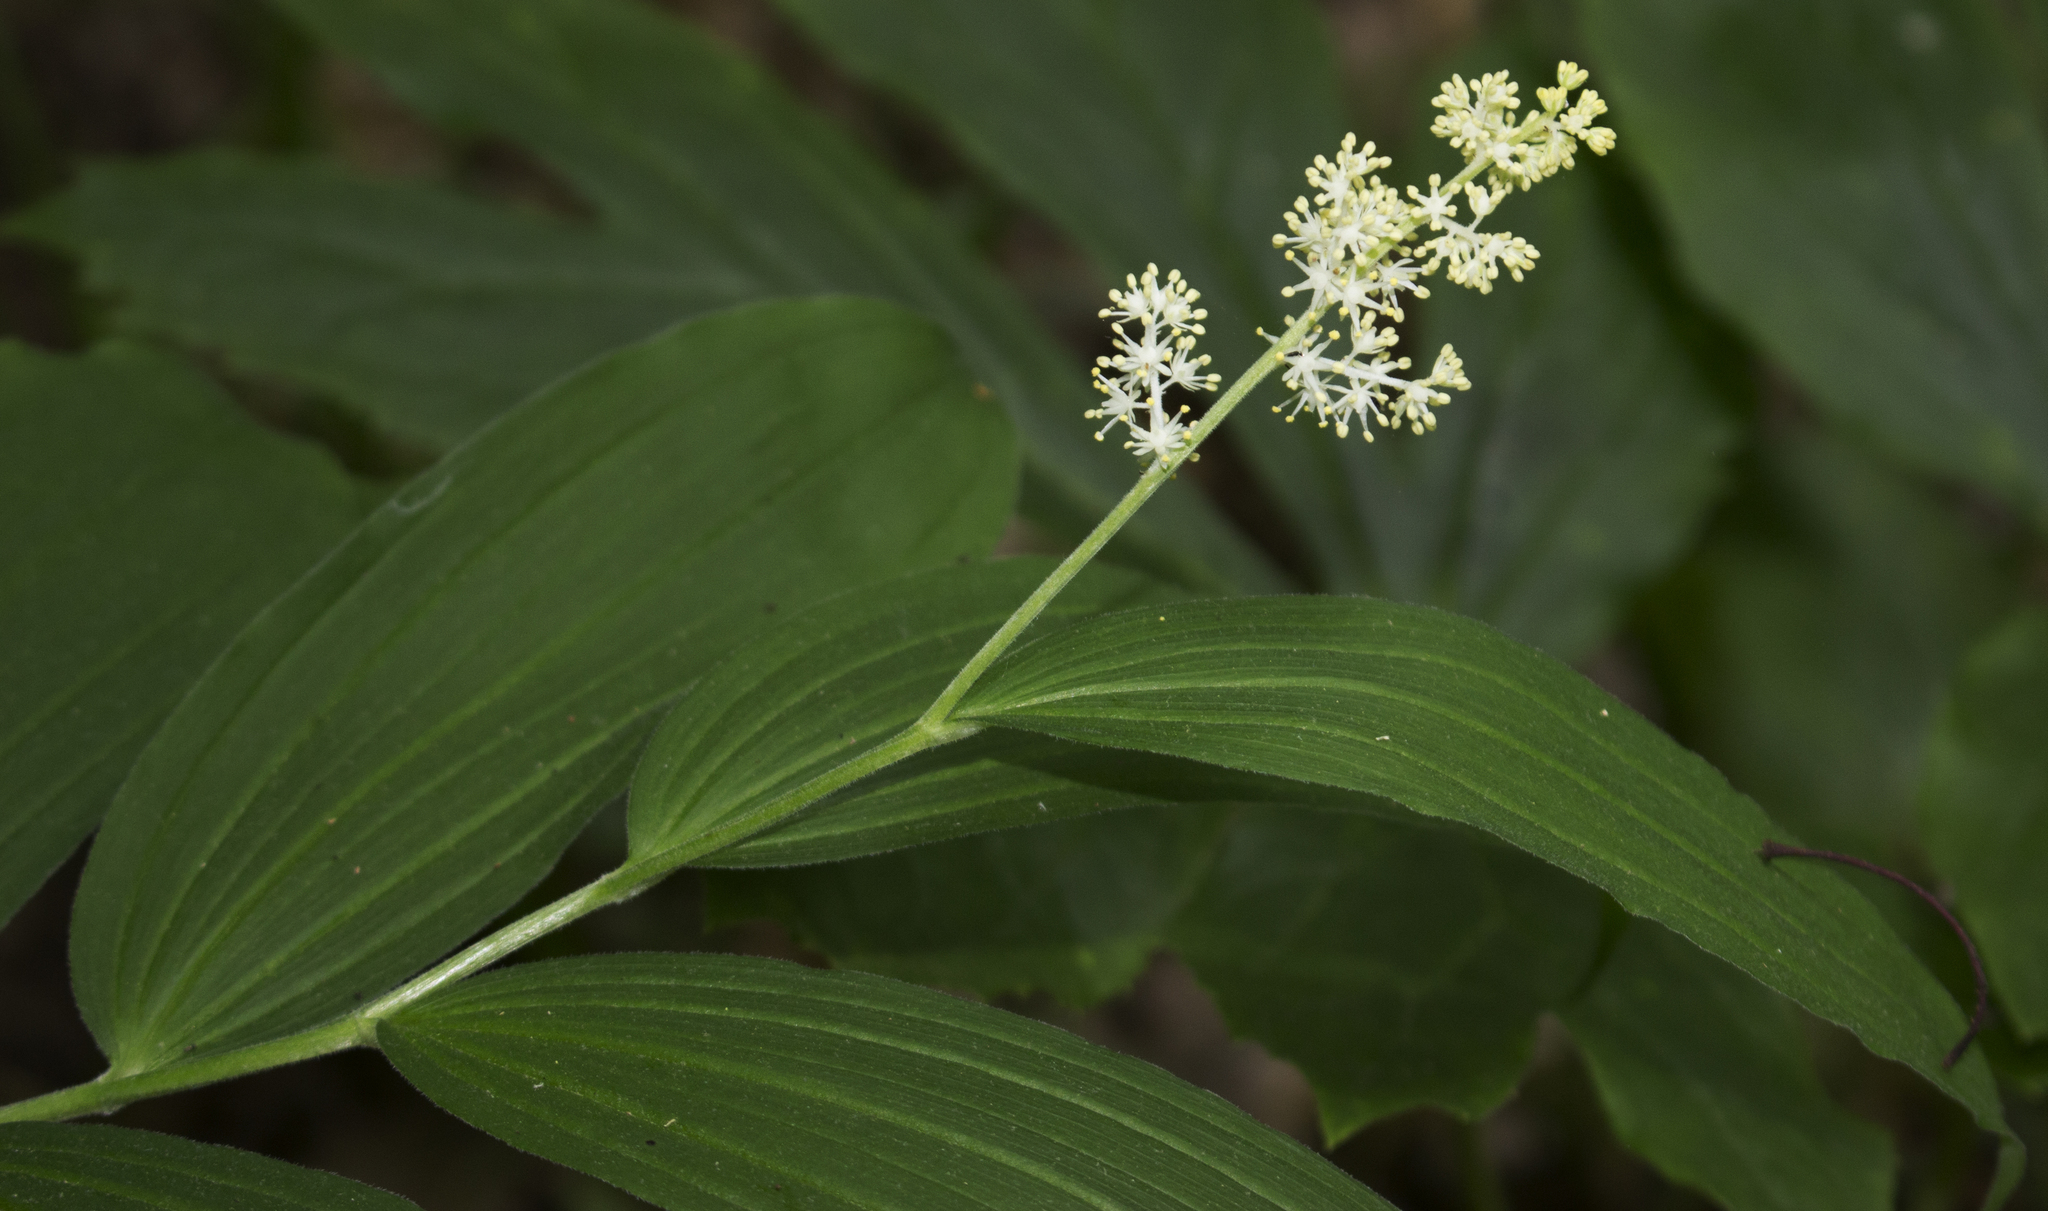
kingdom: Plantae
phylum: Tracheophyta
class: Liliopsida
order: Asparagales
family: Asparagaceae
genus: Maianthemum
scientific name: Maianthemum racemosum
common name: False spikenard
